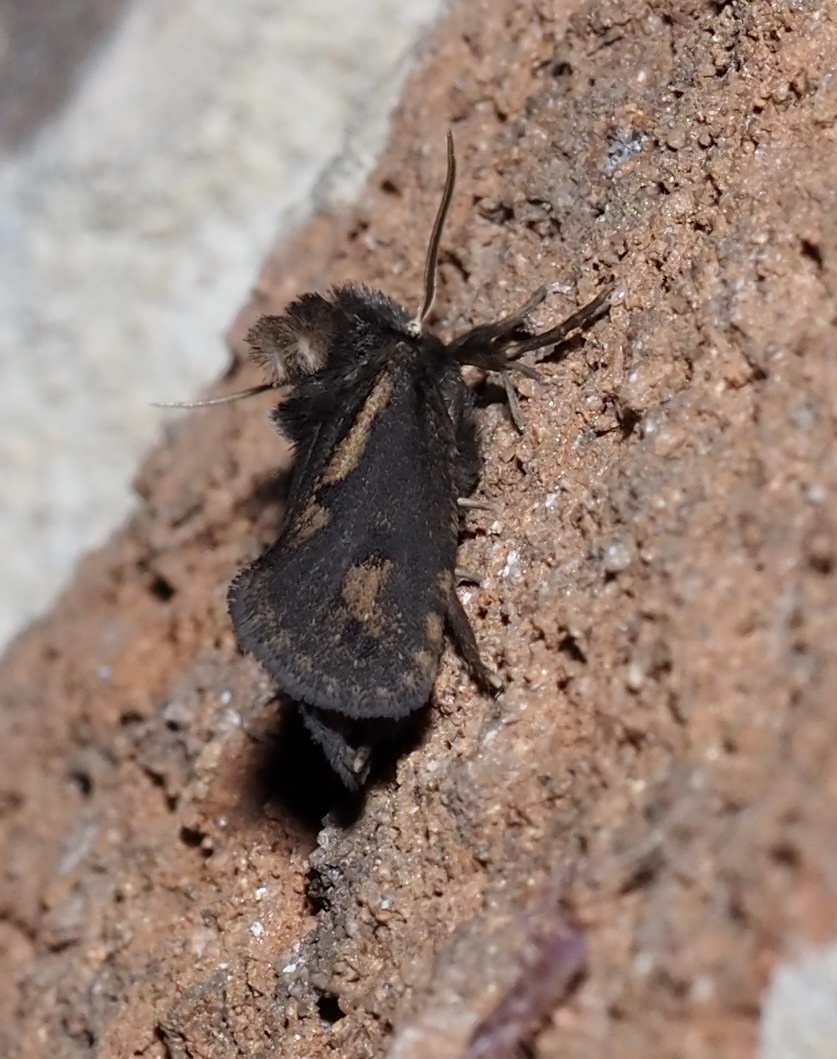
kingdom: Animalia
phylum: Arthropoda
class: Insecta
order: Lepidoptera
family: Tineidae
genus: Acrolophus
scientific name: Acrolophus popeanella
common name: Clemens' grass tubeworm moth
